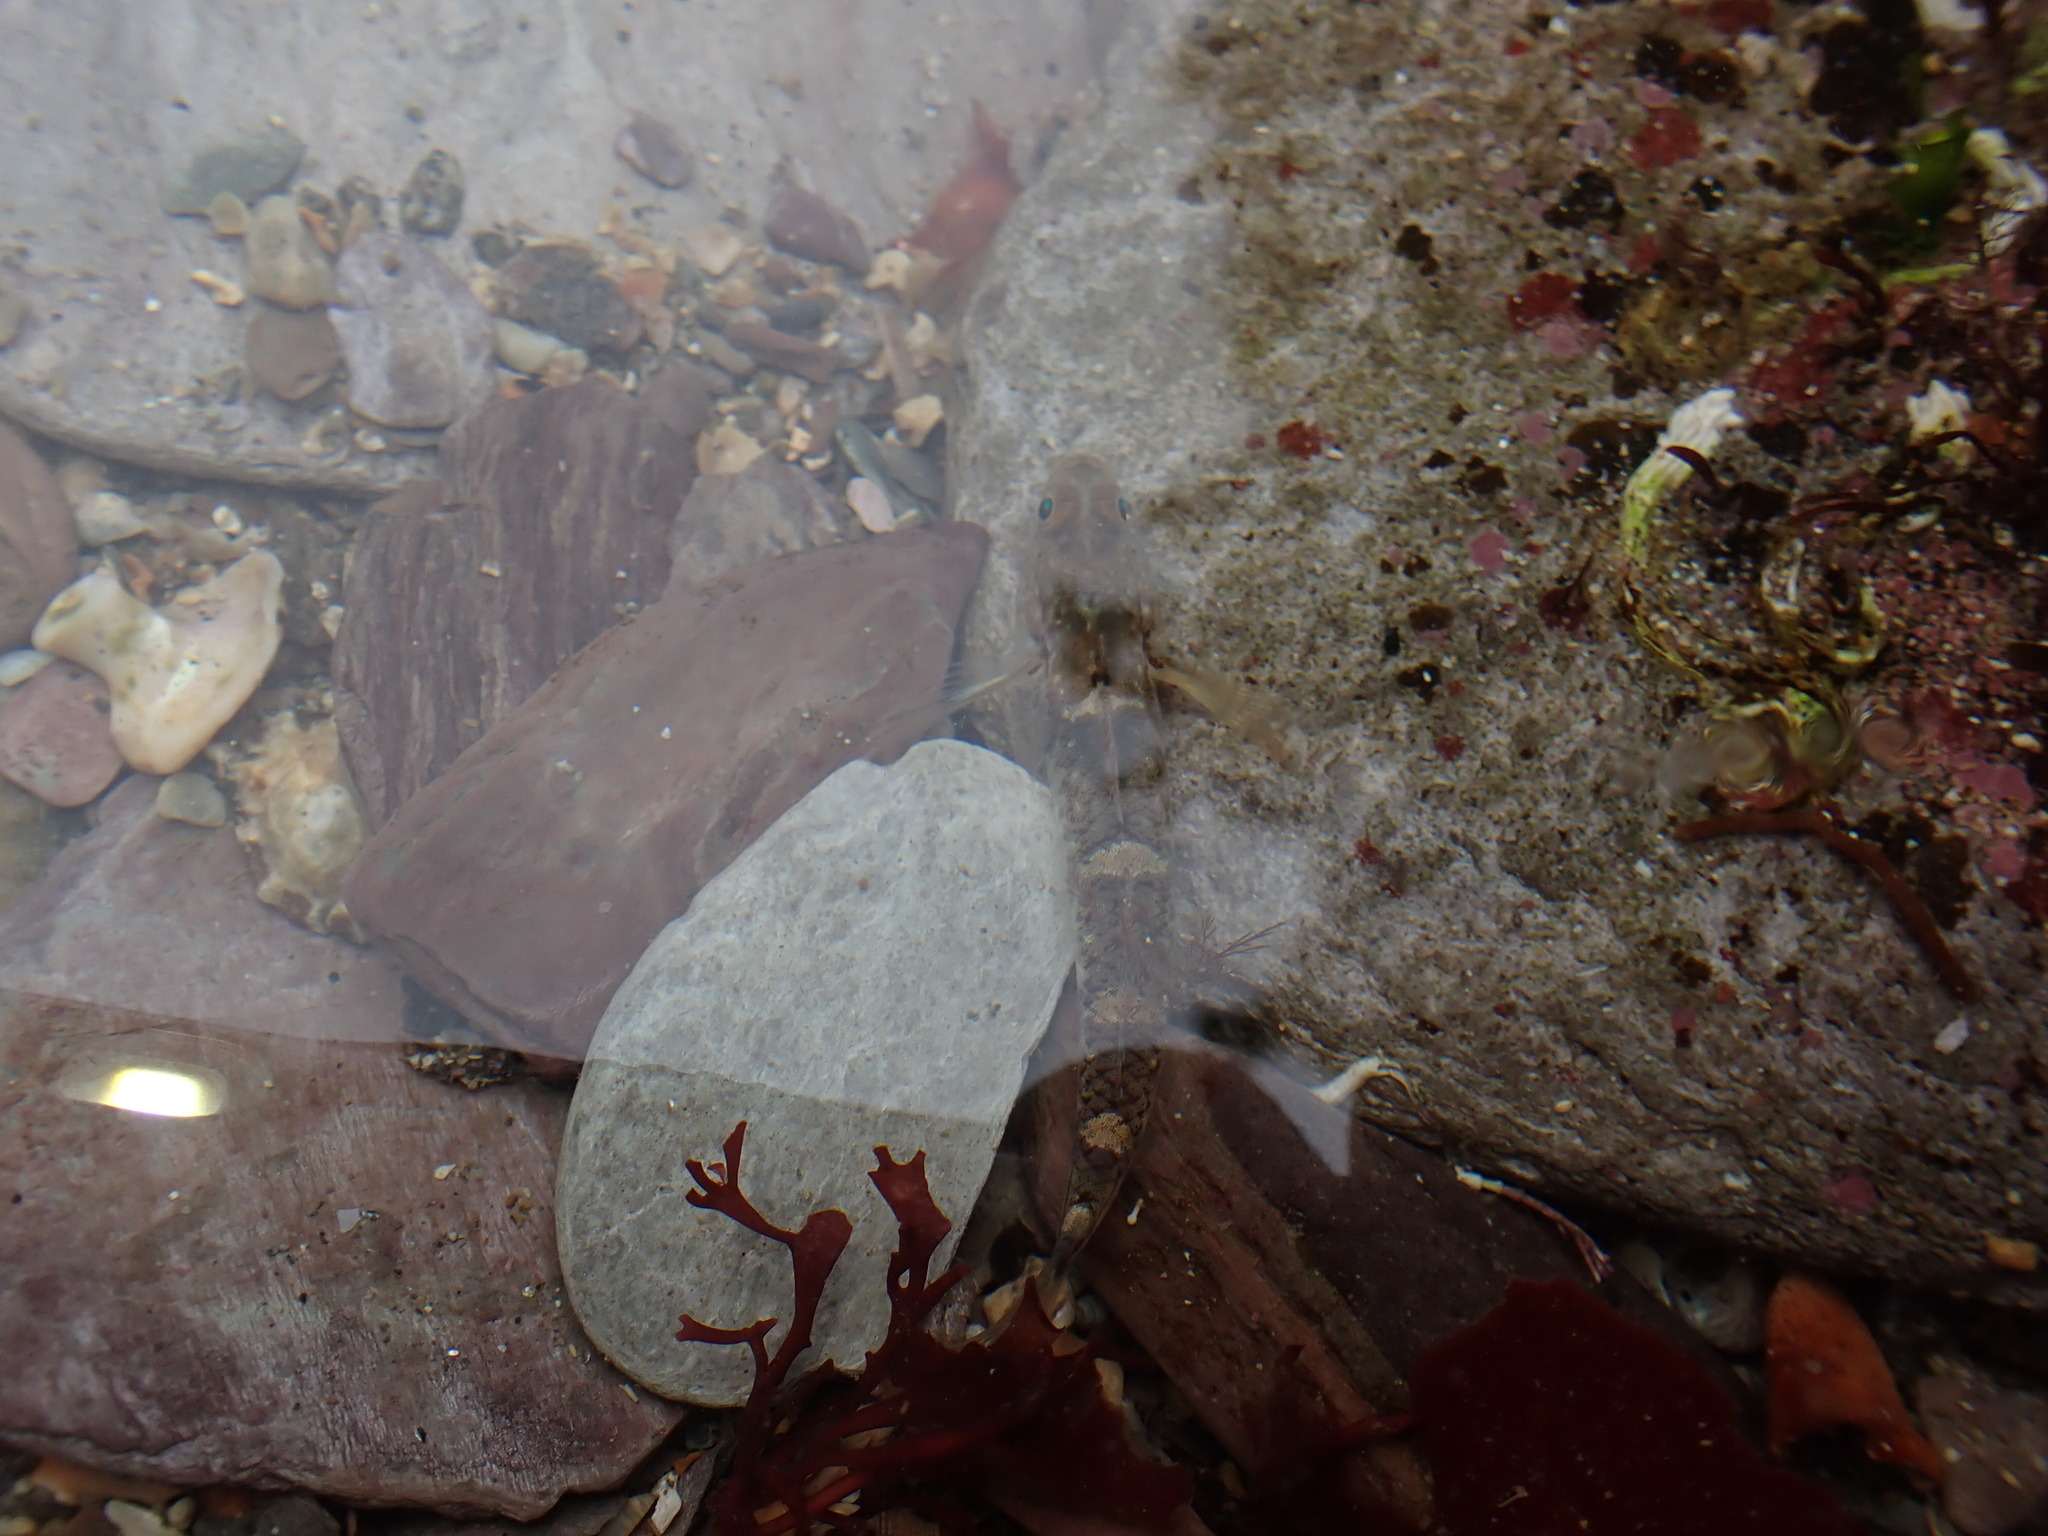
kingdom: Animalia
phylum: Chordata
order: Perciformes
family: Gobiidae
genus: Pomatoschistus
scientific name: Pomatoschistus pictus
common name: Painted goby
